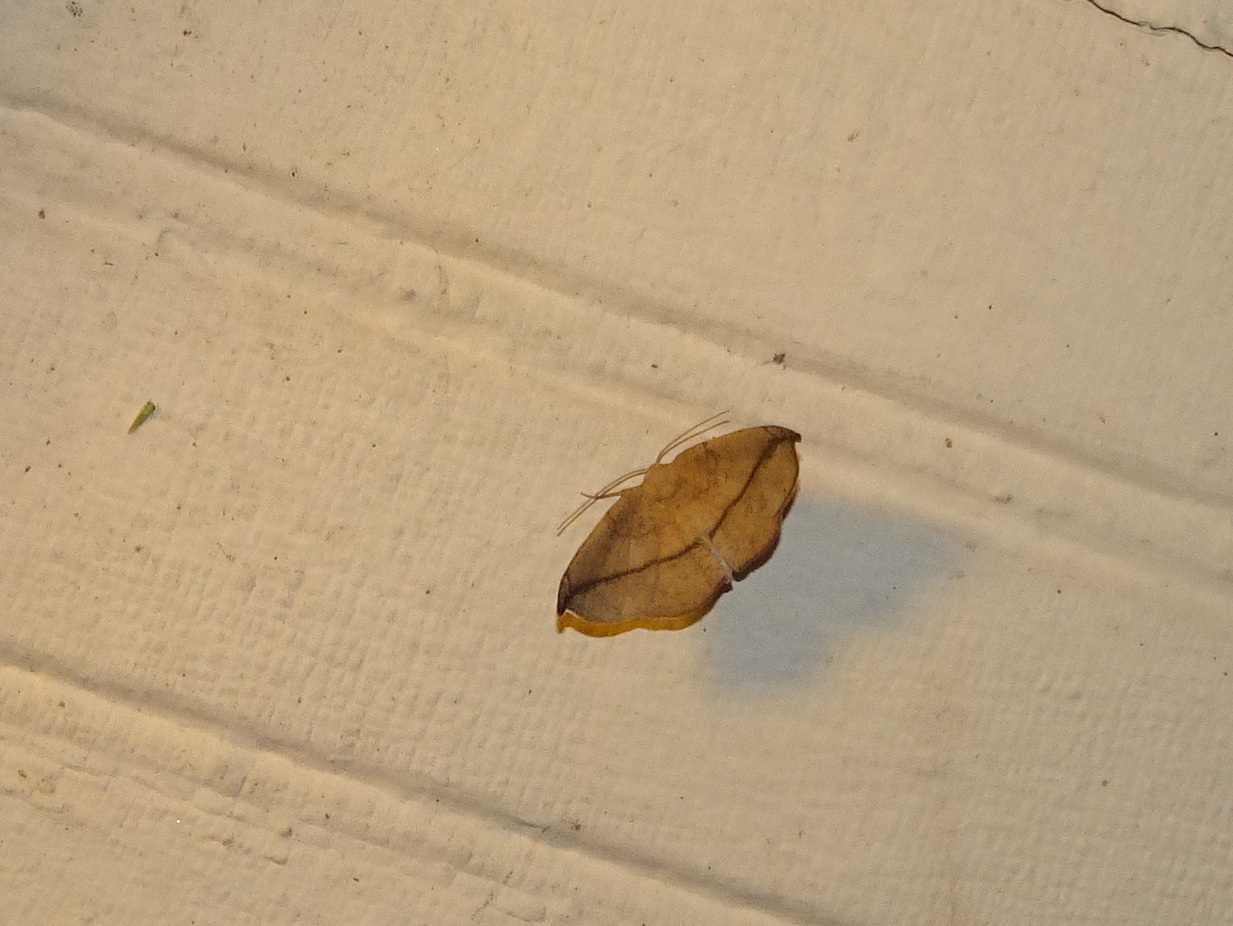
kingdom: Animalia
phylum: Arthropoda
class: Insecta
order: Lepidoptera
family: Geometridae
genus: Patalene
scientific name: Patalene olyzonaria
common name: Juniper geometer moth
